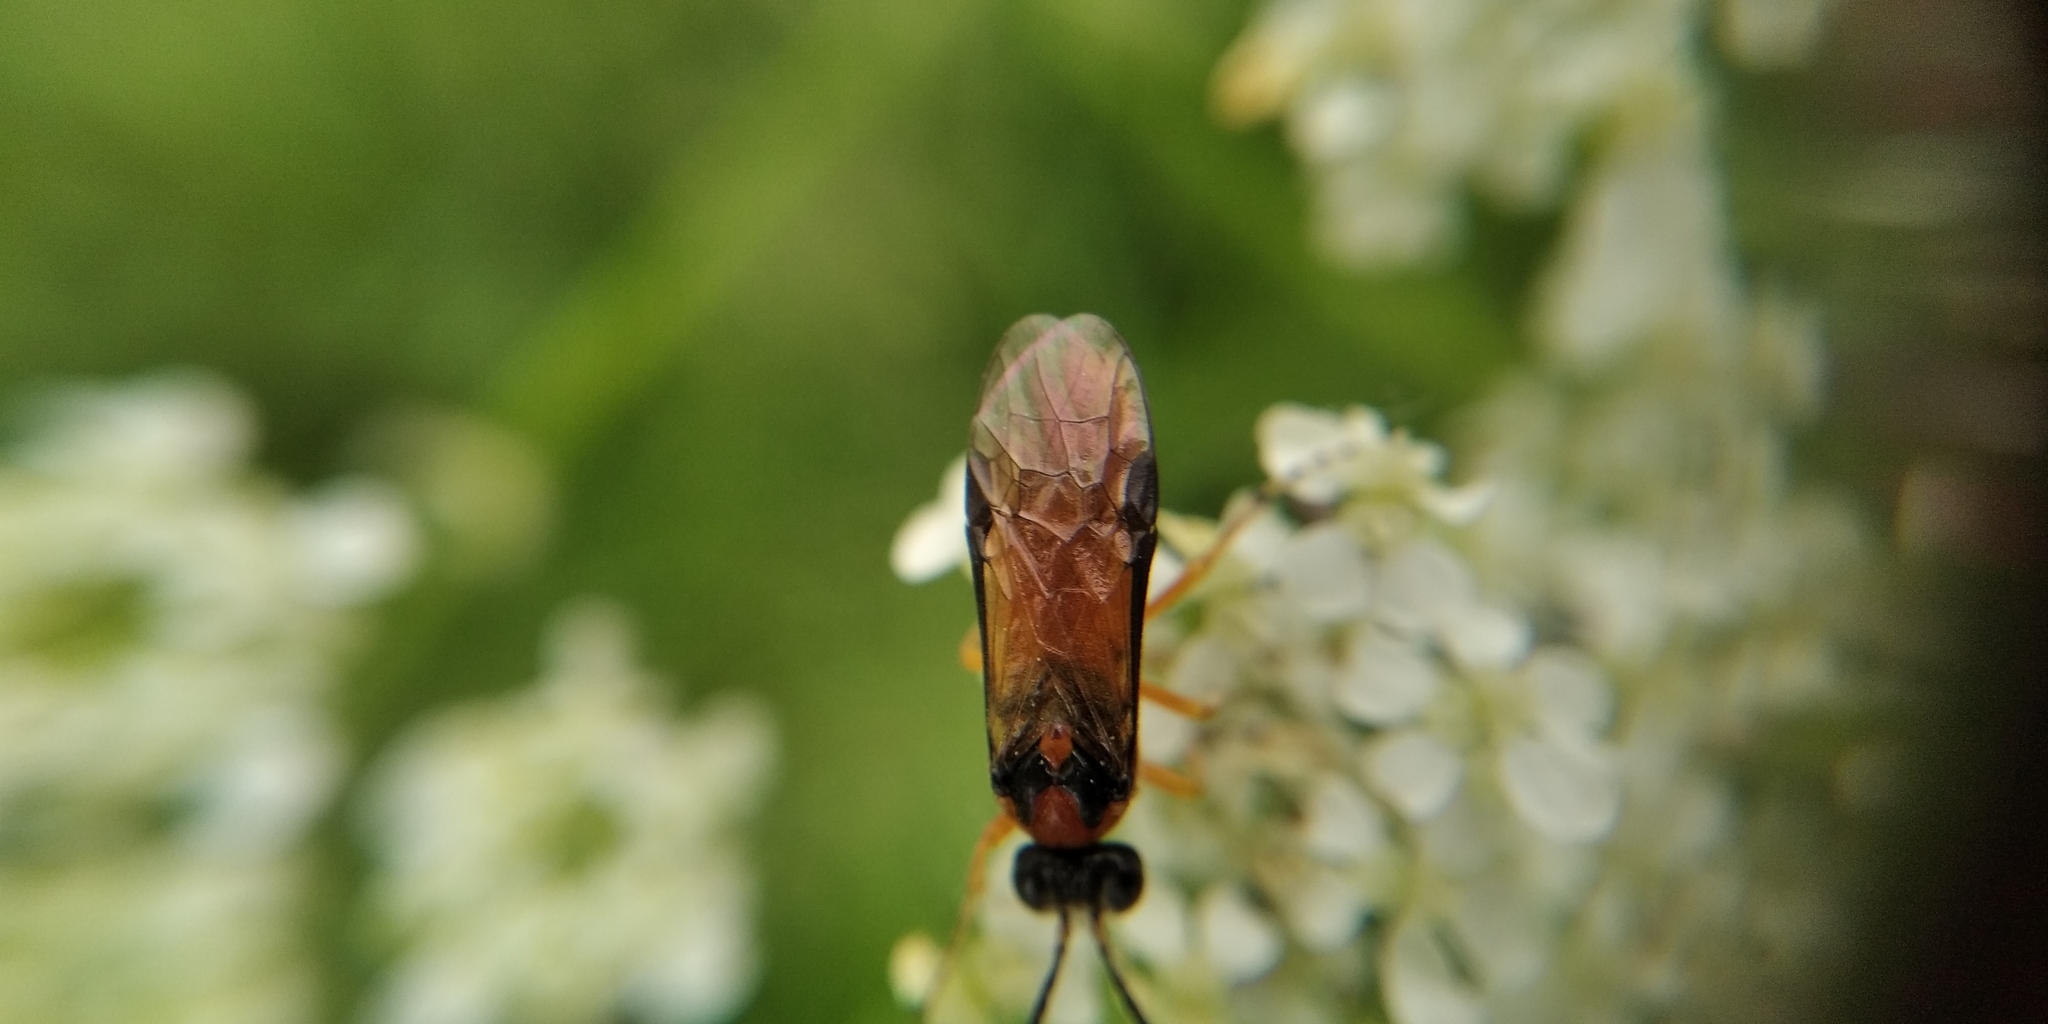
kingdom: Animalia
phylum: Arthropoda
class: Insecta
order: Hymenoptera
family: Tenthredinidae
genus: Athalia
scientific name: Athalia rosae
